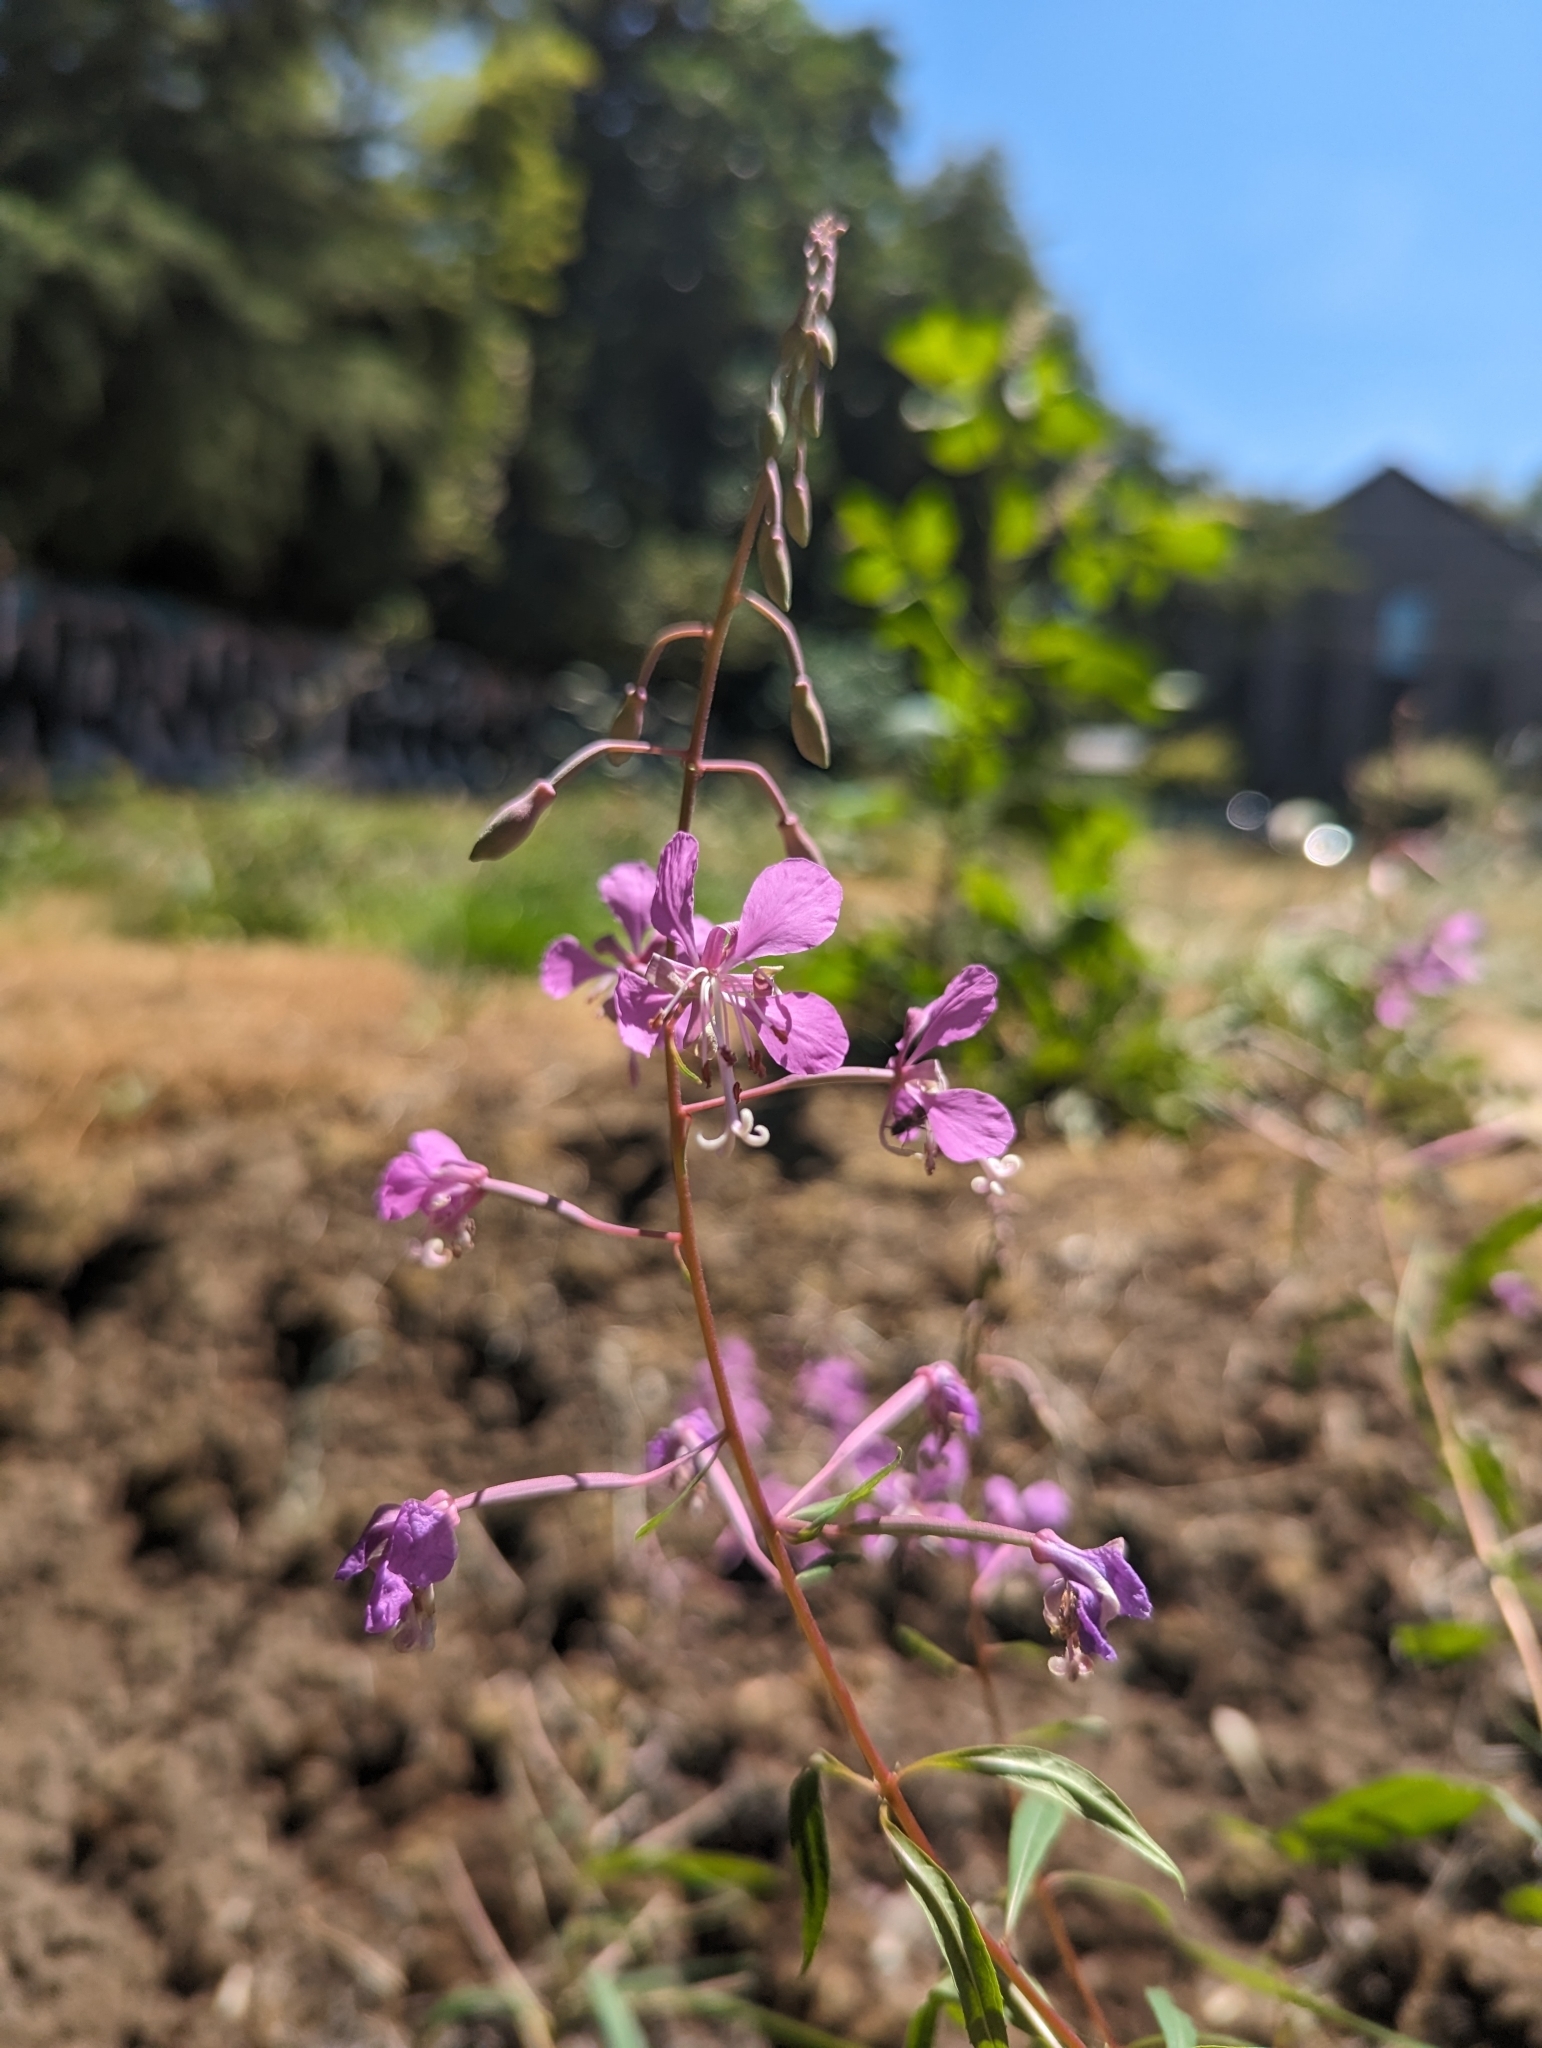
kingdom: Plantae
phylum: Tracheophyta
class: Magnoliopsida
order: Myrtales
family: Onagraceae
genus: Chamaenerion
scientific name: Chamaenerion angustifolium
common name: Fireweed
